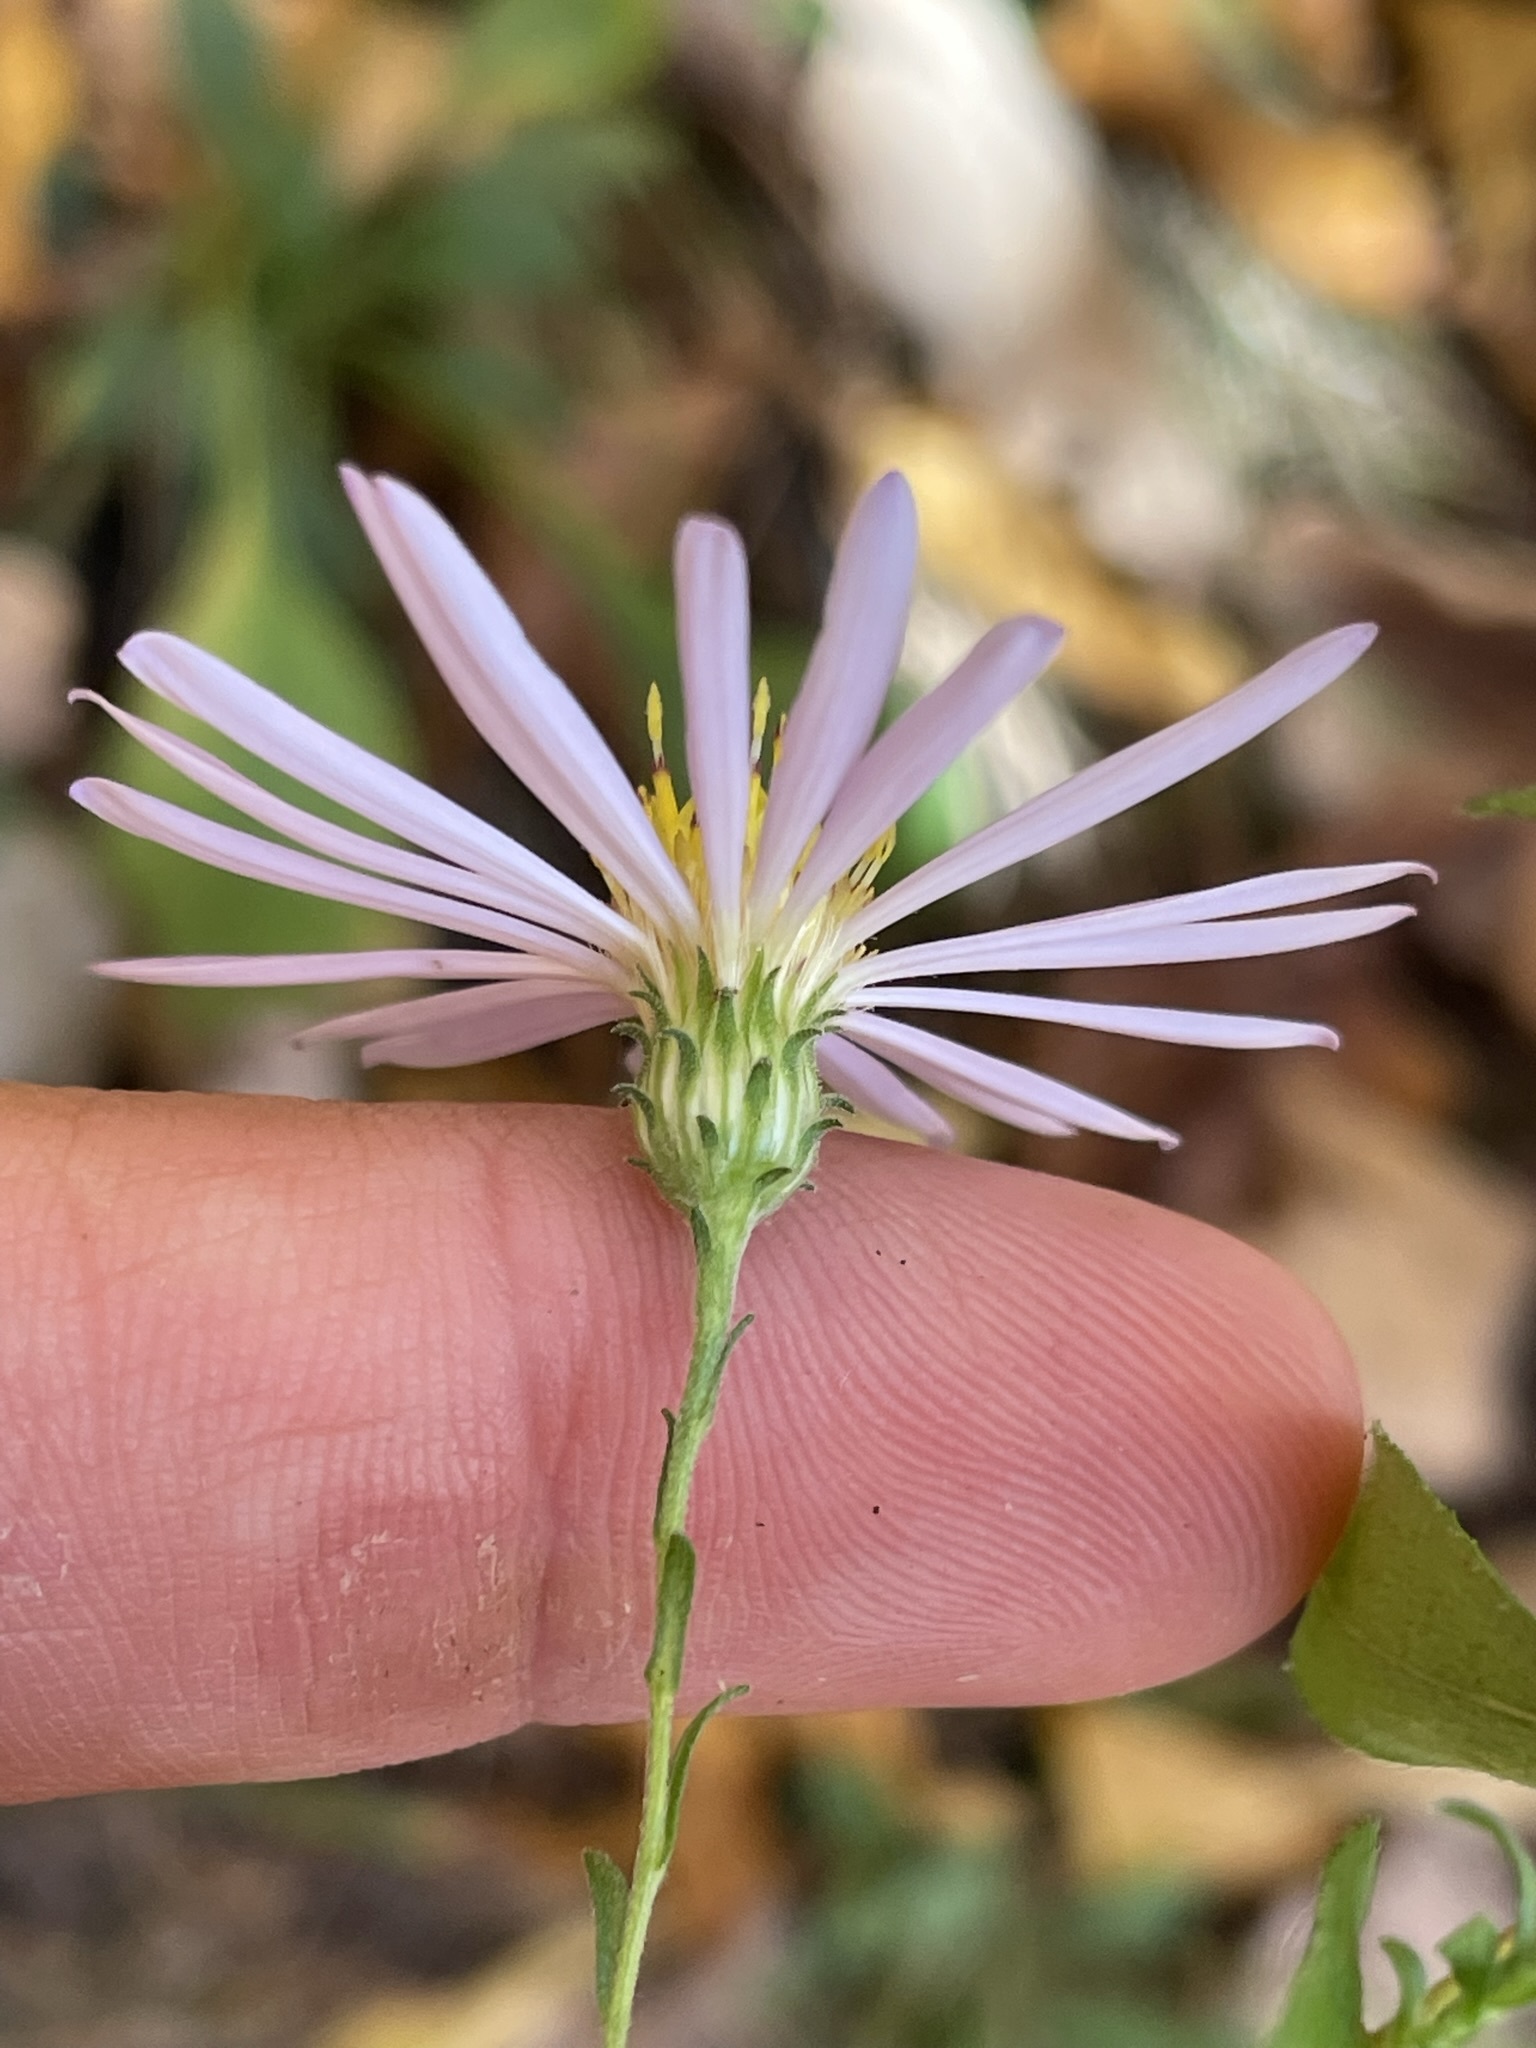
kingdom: Plantae
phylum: Tracheophyta
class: Magnoliopsida
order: Asterales
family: Asteraceae
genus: Symphyotrichum
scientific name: Symphyotrichum patens
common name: Late purple aster
